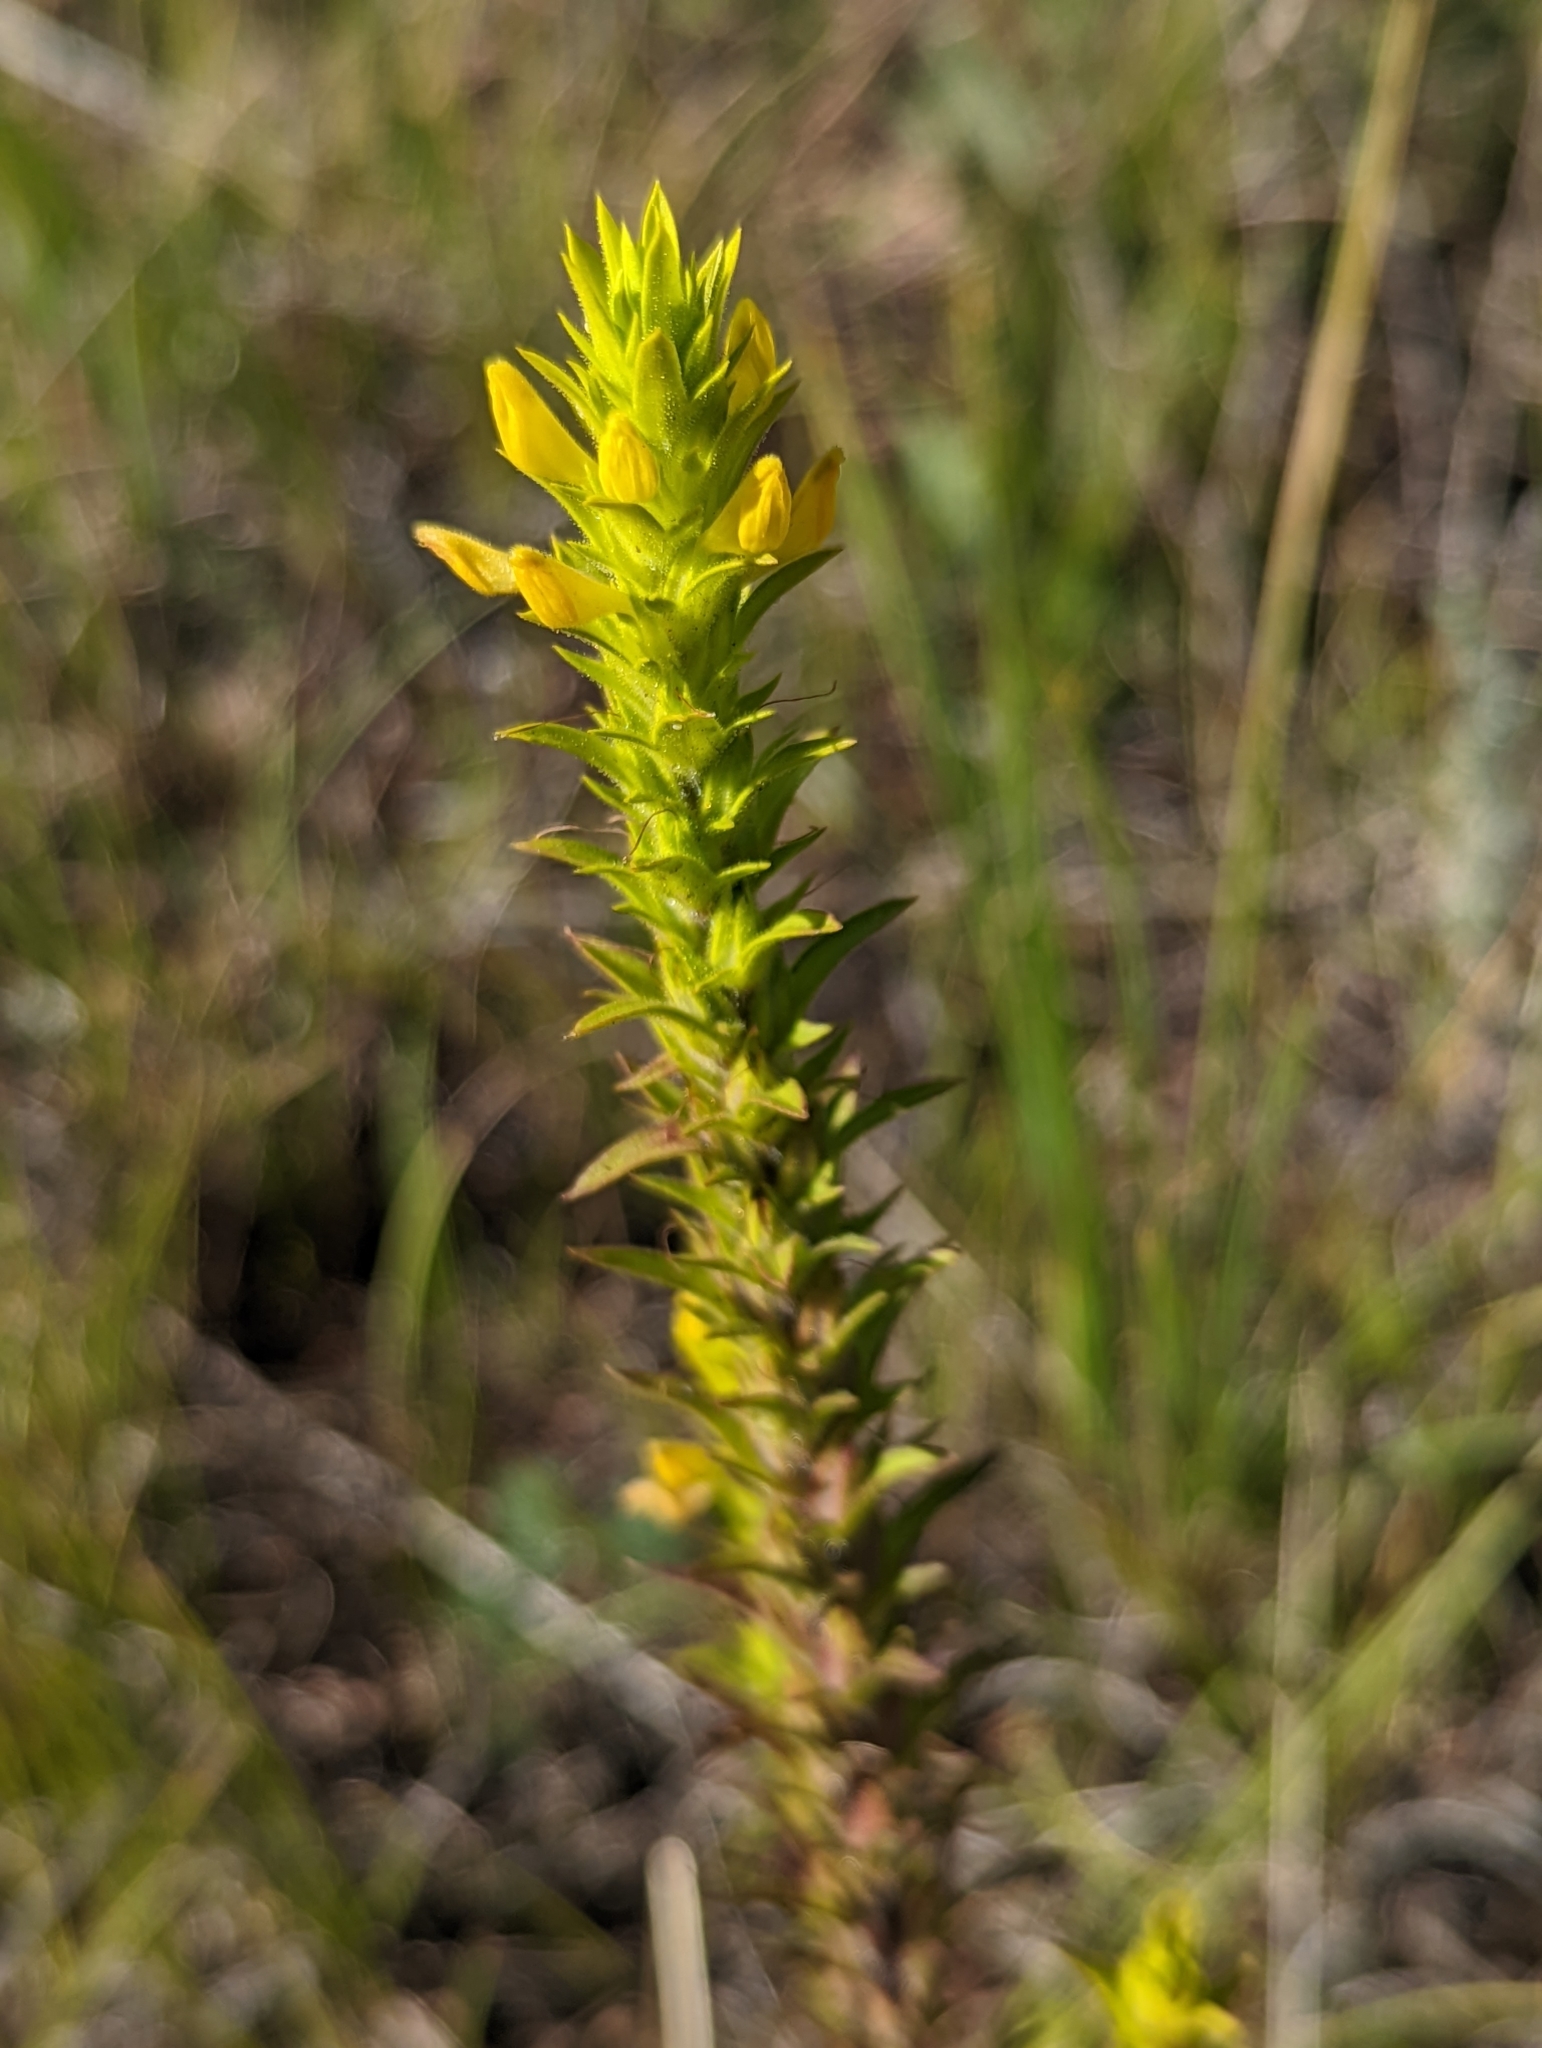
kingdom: Plantae
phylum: Tracheophyta
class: Magnoliopsida
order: Lamiales
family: Orobanchaceae
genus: Orthocarpus
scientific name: Orthocarpus luteus
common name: Golden-tongue owl's-clover
